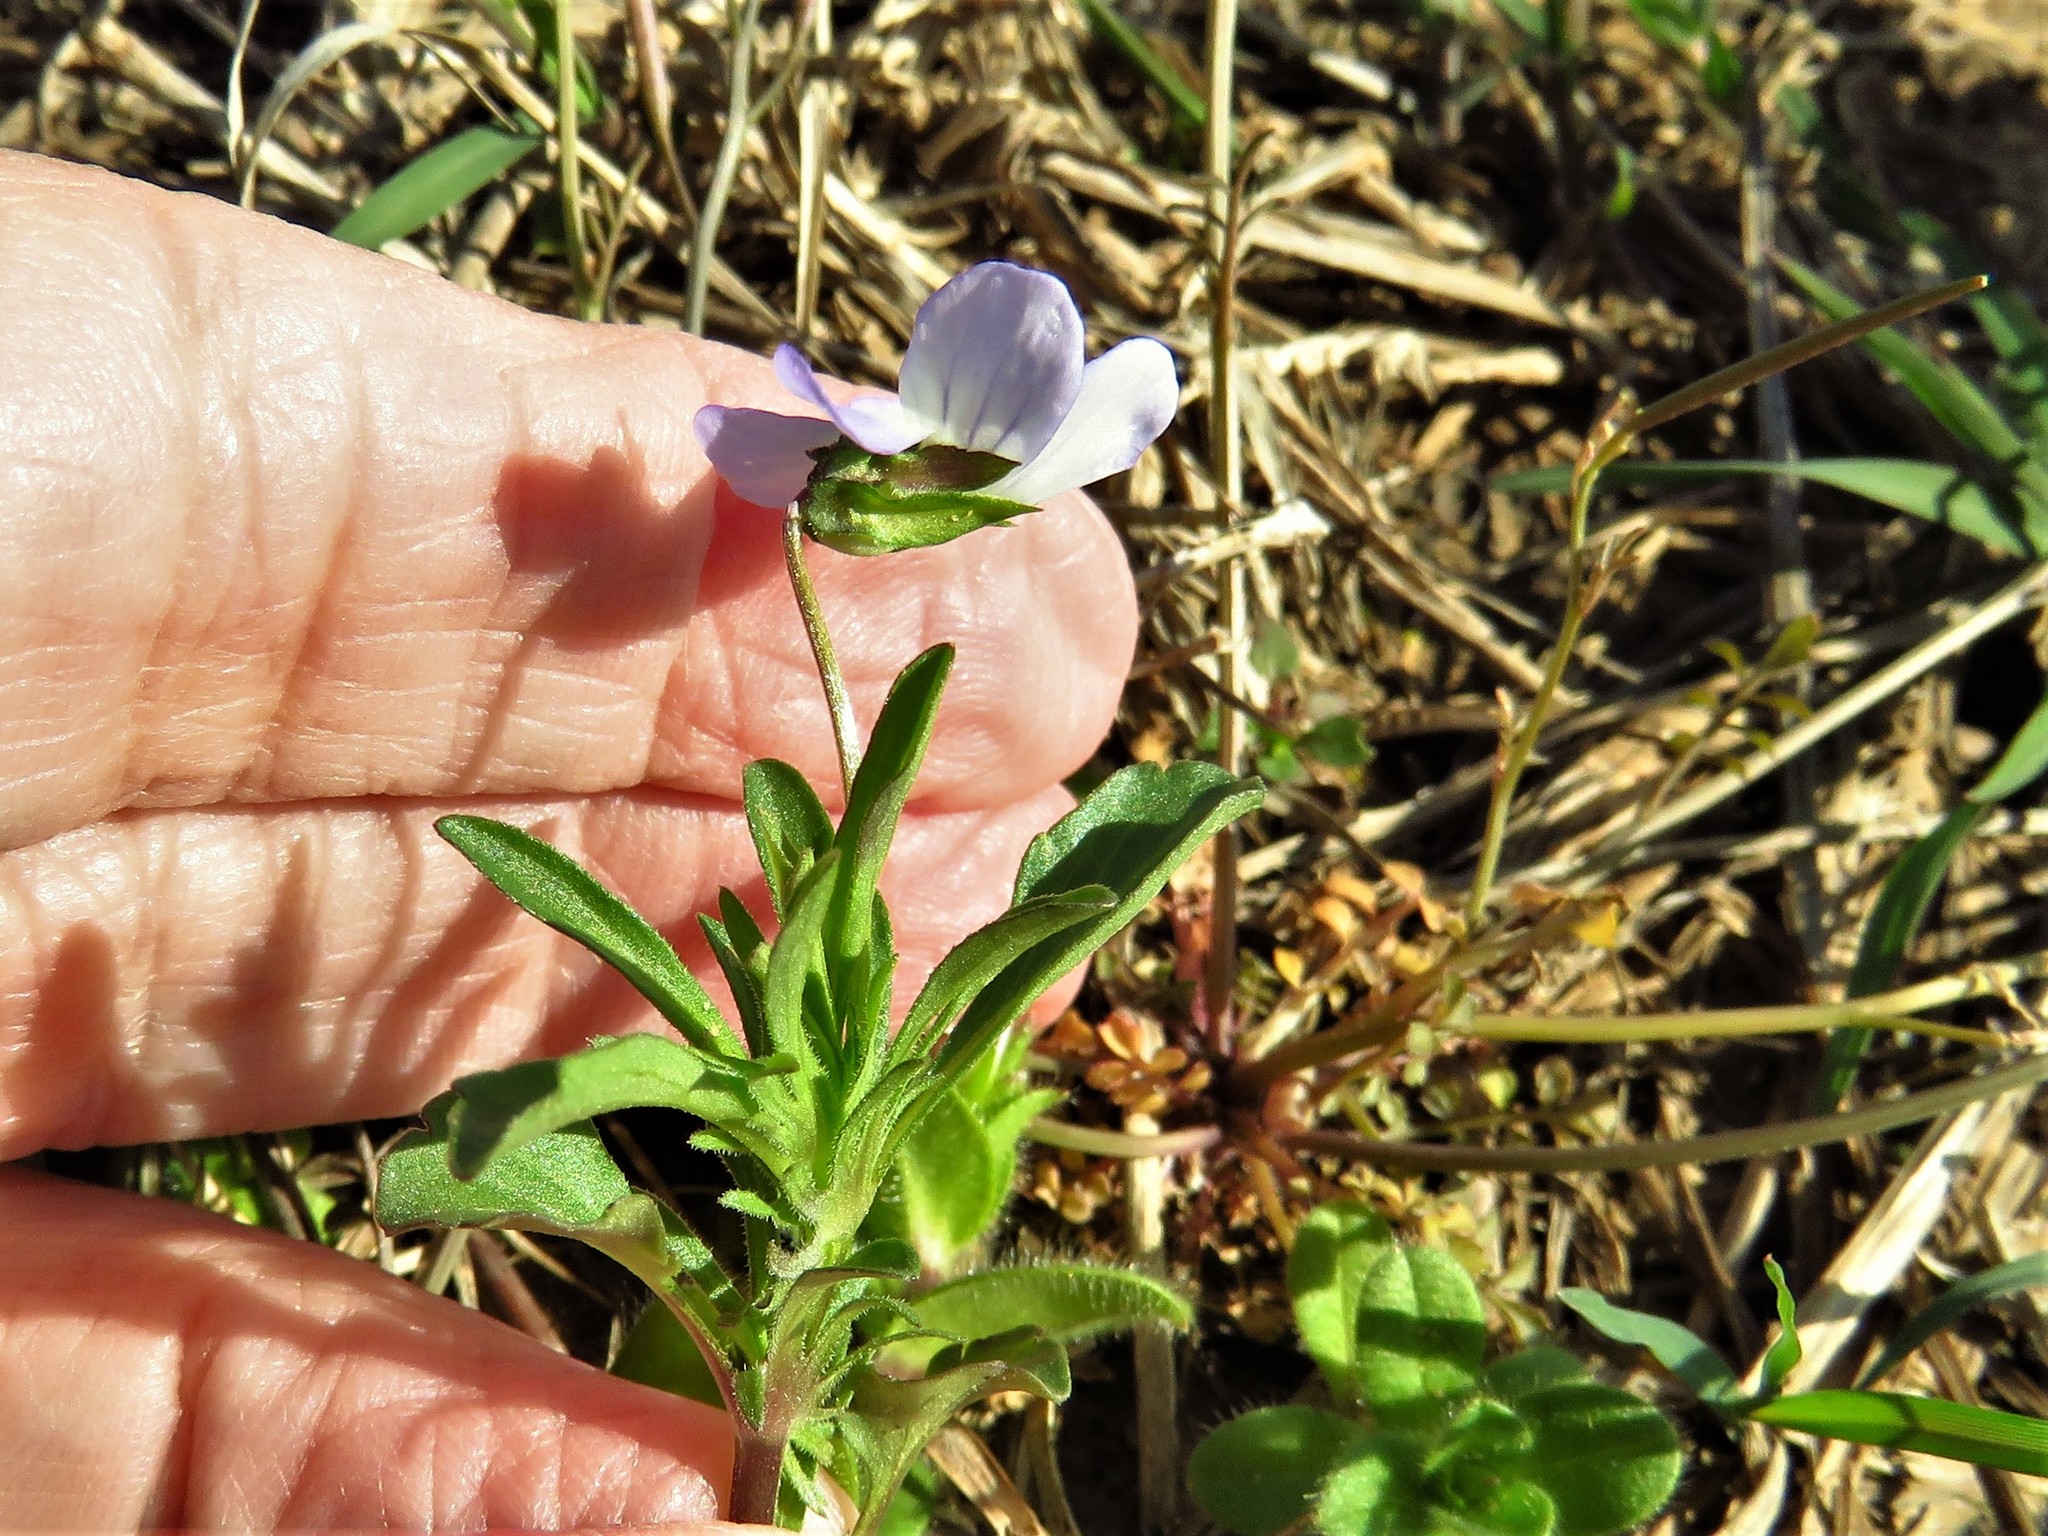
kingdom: Plantae
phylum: Tracheophyta
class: Magnoliopsida
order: Malpighiales
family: Violaceae
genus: Viola
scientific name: Viola rafinesquei
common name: American field pansy
